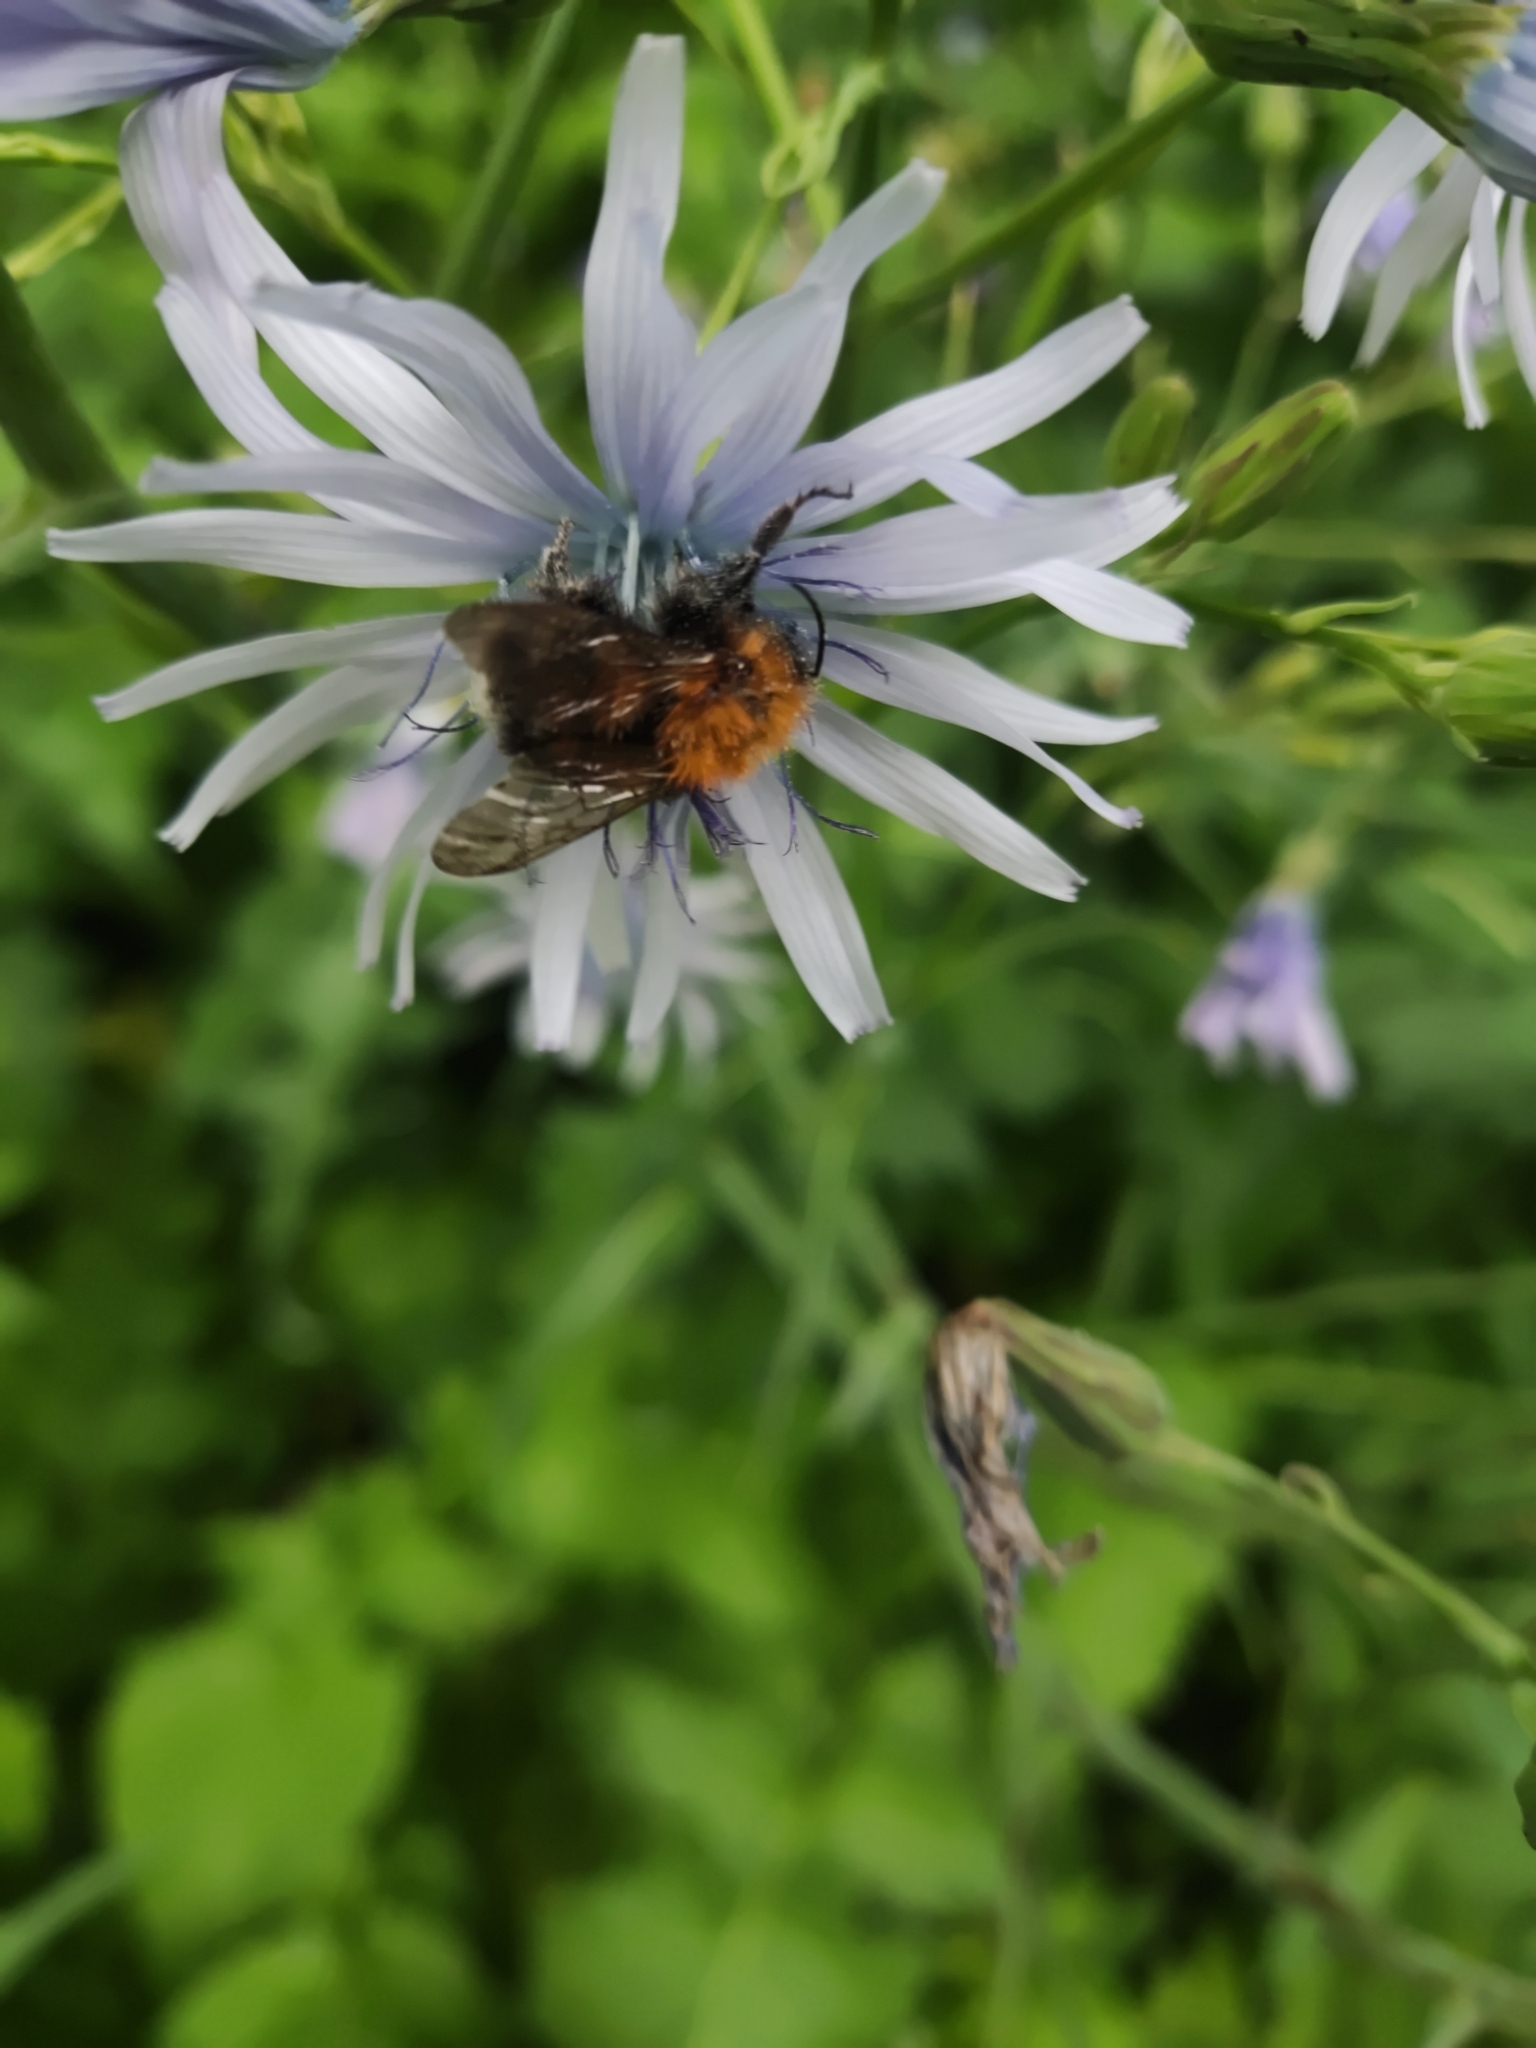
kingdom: Animalia
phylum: Arthropoda
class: Insecta
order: Hymenoptera
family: Apidae
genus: Bombus
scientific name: Bombus hypnorum
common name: New garden bumblebee
